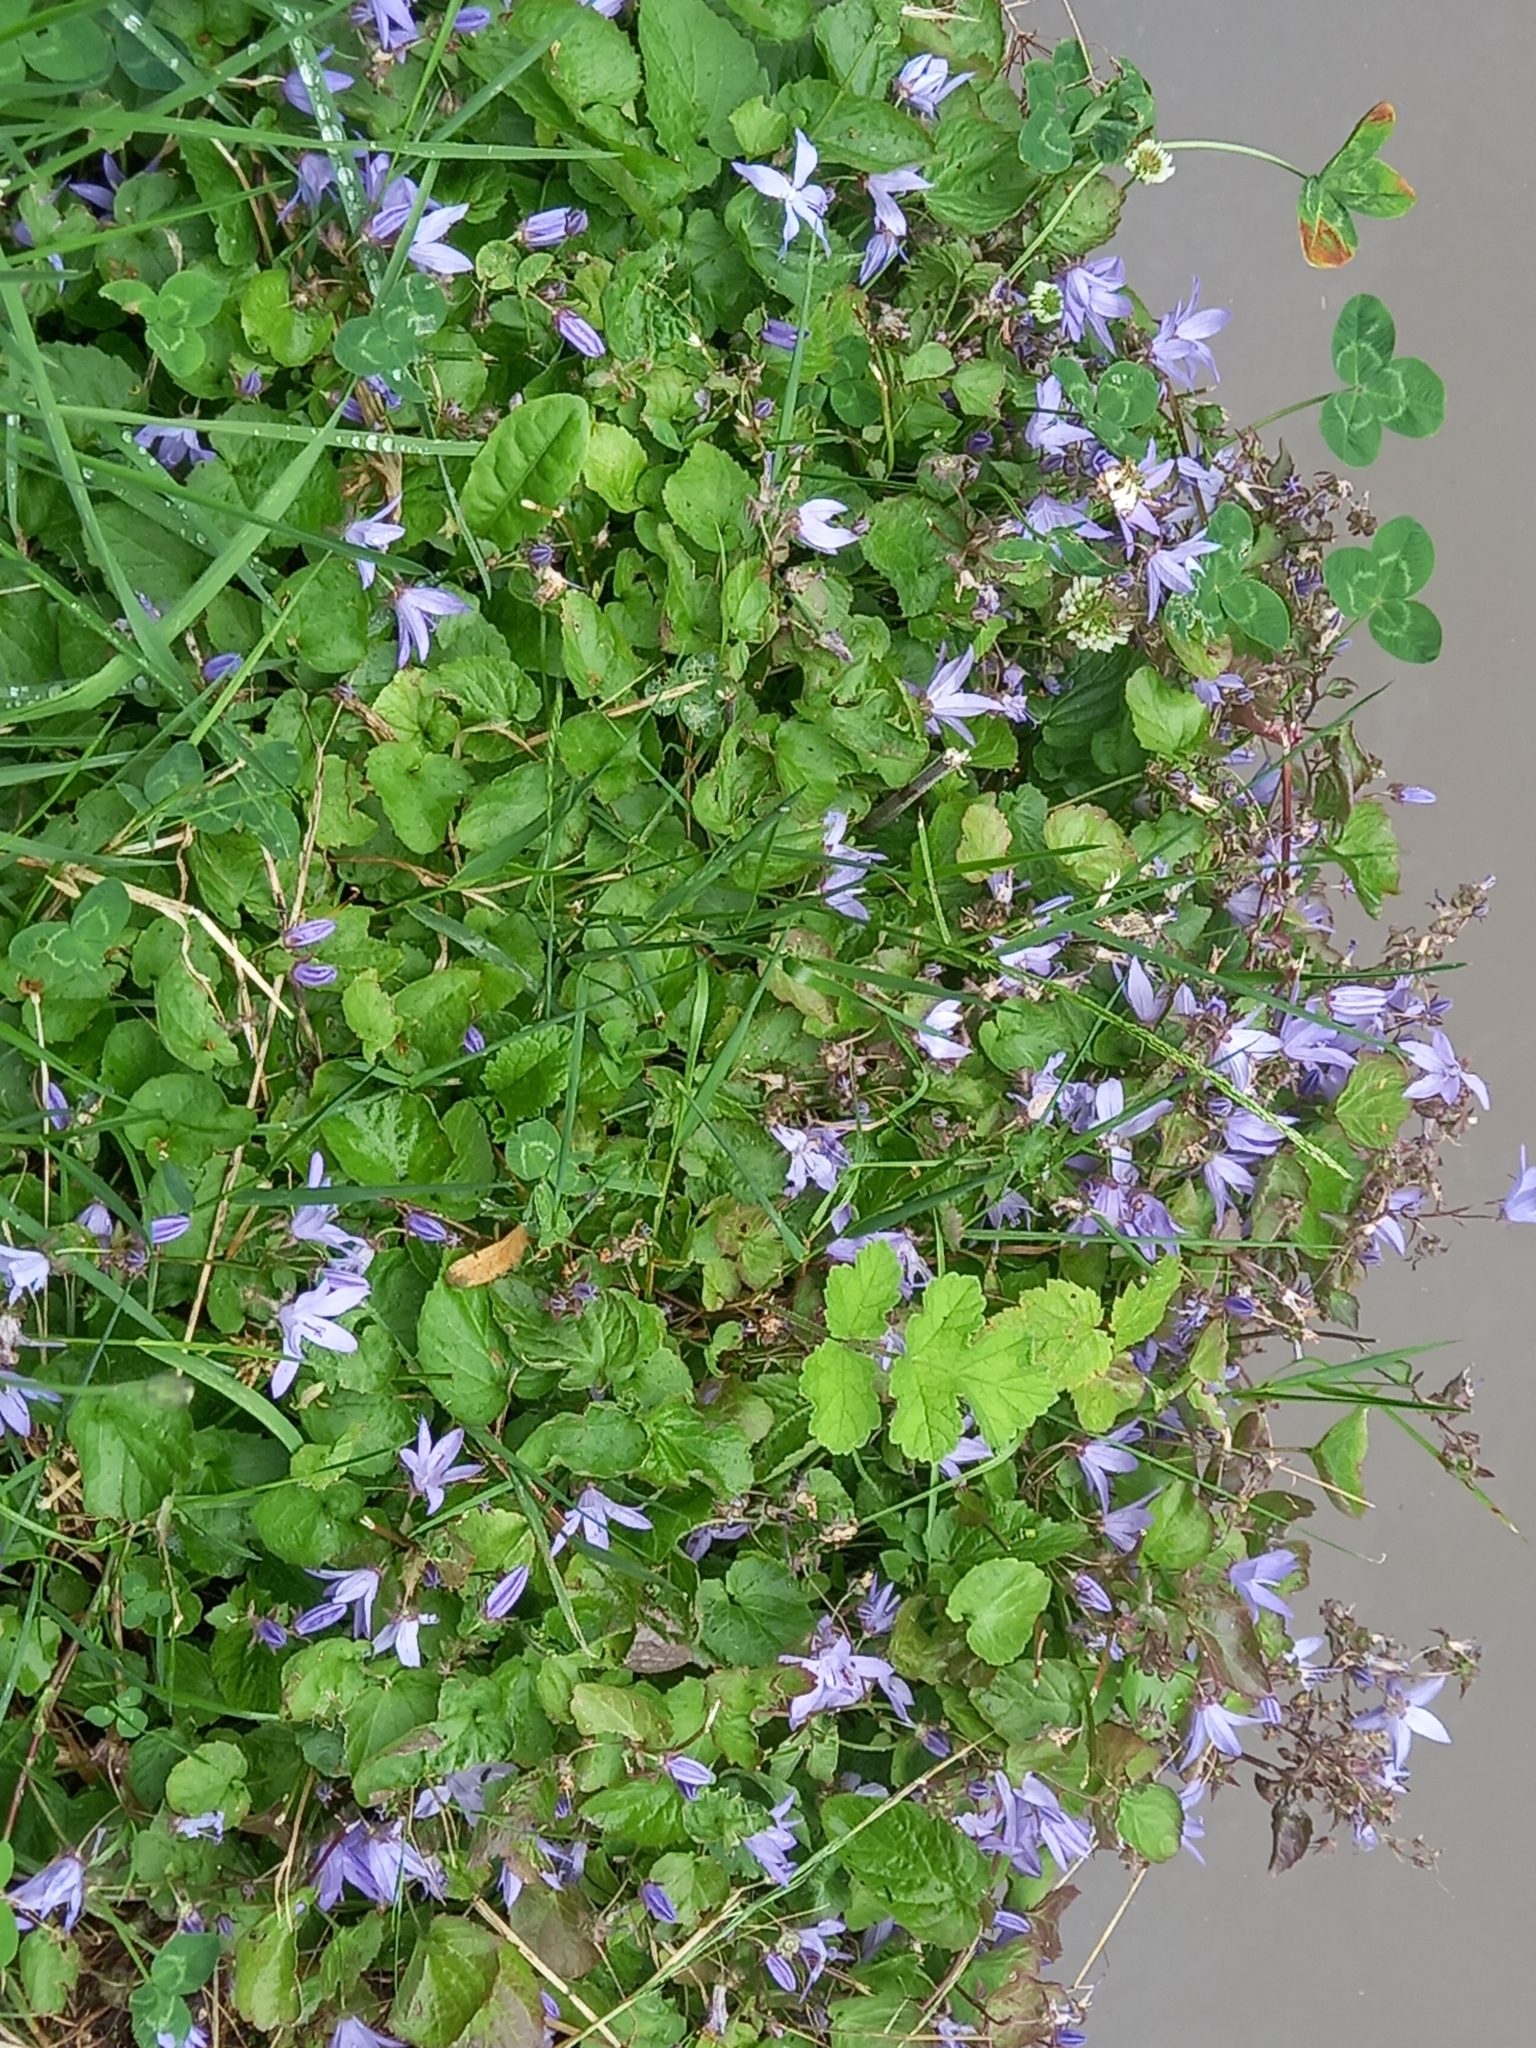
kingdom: Plantae
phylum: Tracheophyta
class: Magnoliopsida
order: Asterales
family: Campanulaceae
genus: Campanula
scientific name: Campanula poscharskyana
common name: Trailing bellflower
